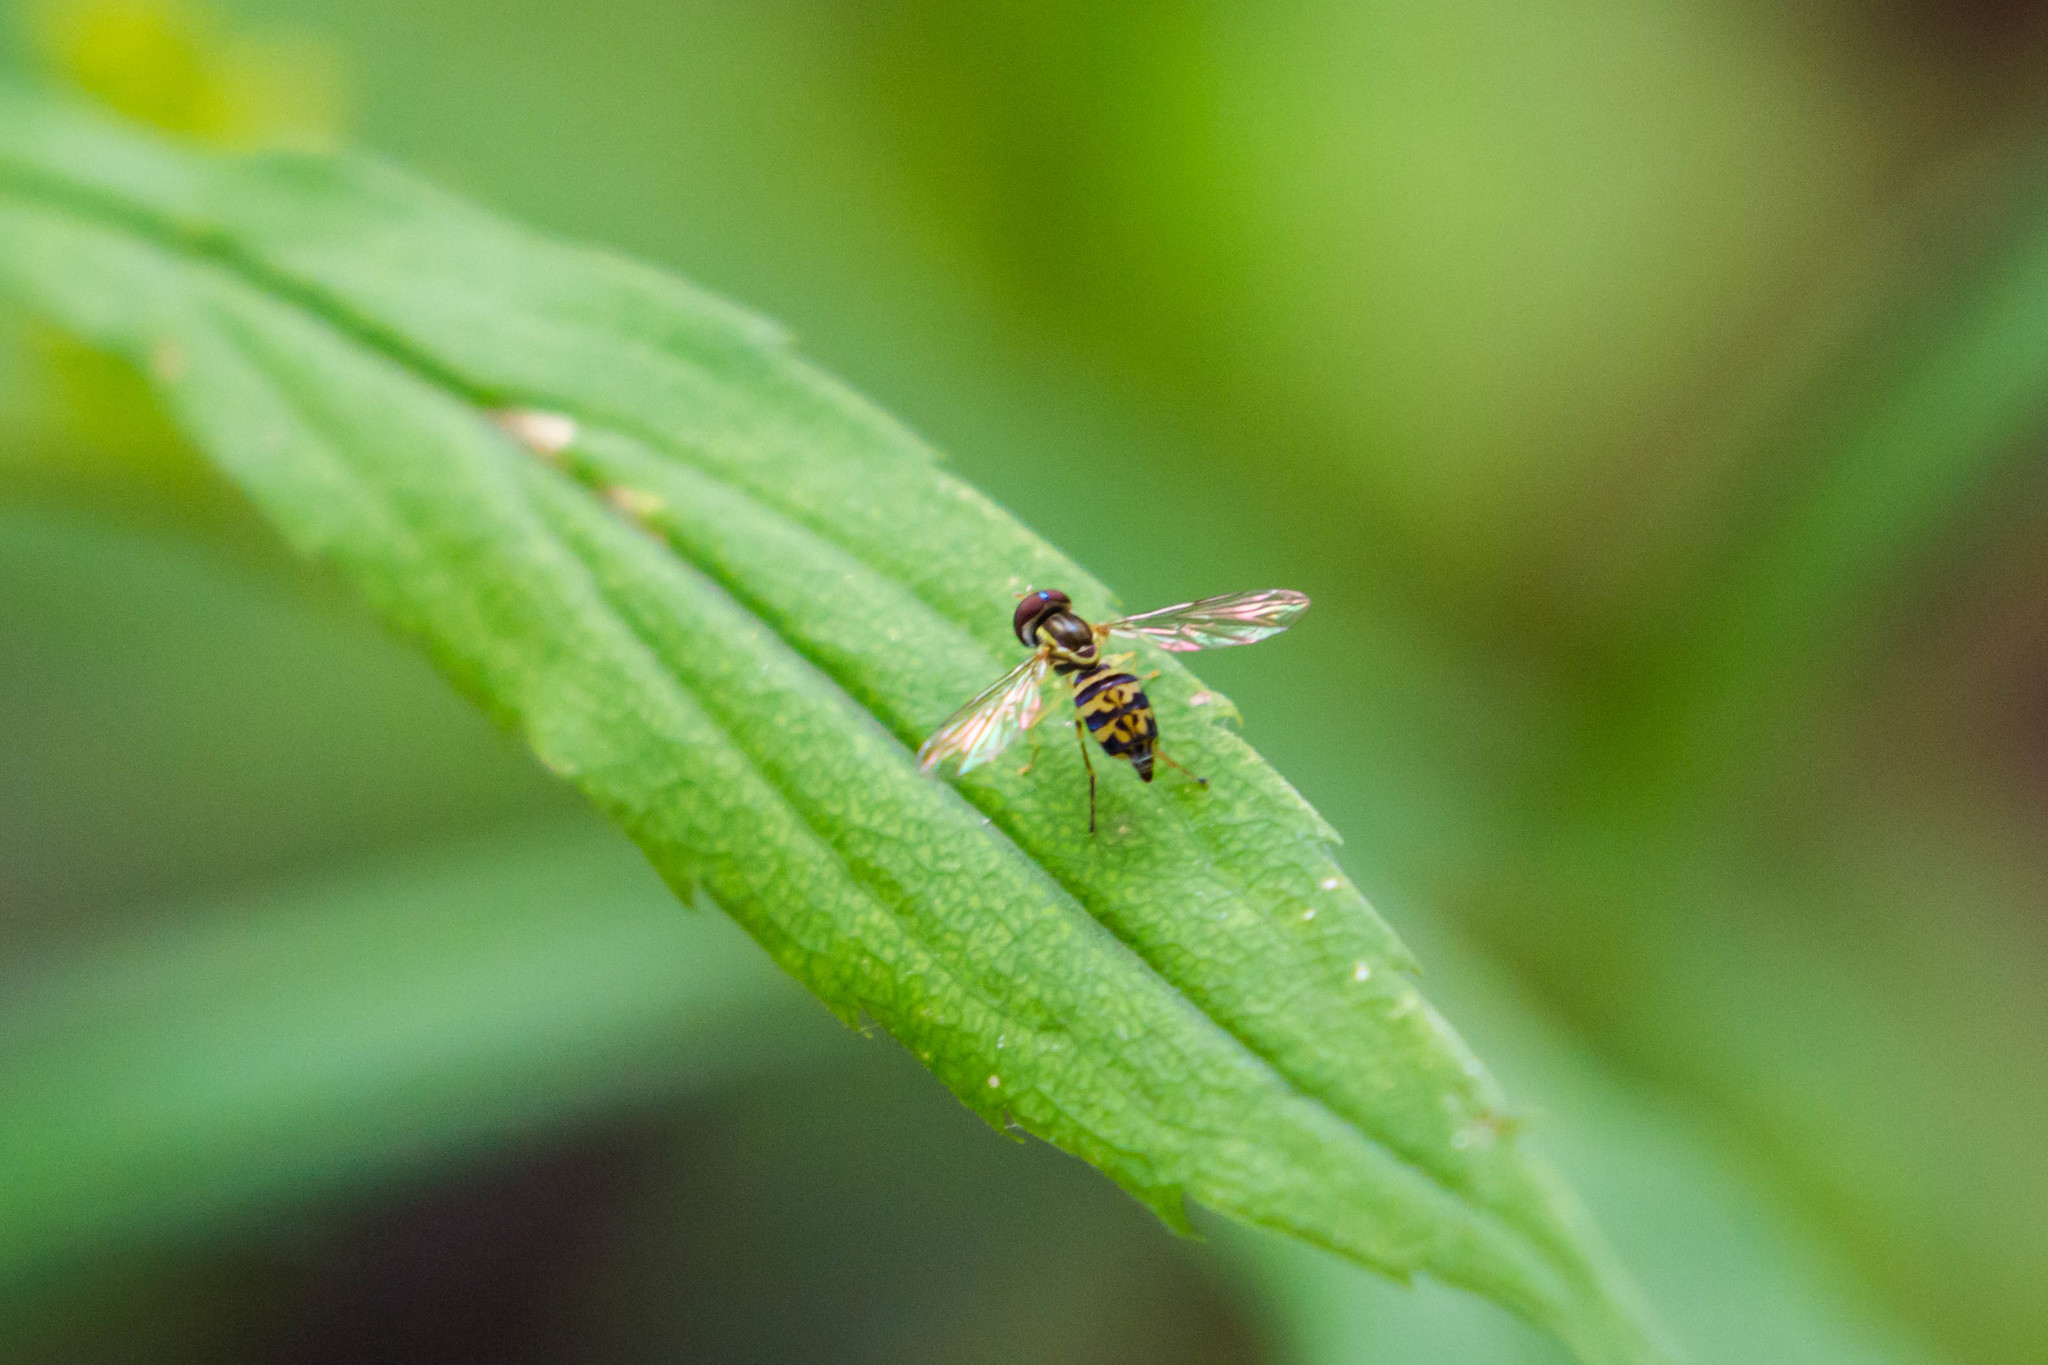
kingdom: Animalia
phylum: Arthropoda
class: Insecta
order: Diptera
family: Syrphidae
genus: Toxomerus
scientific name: Toxomerus geminatus
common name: Eastern calligrapher
